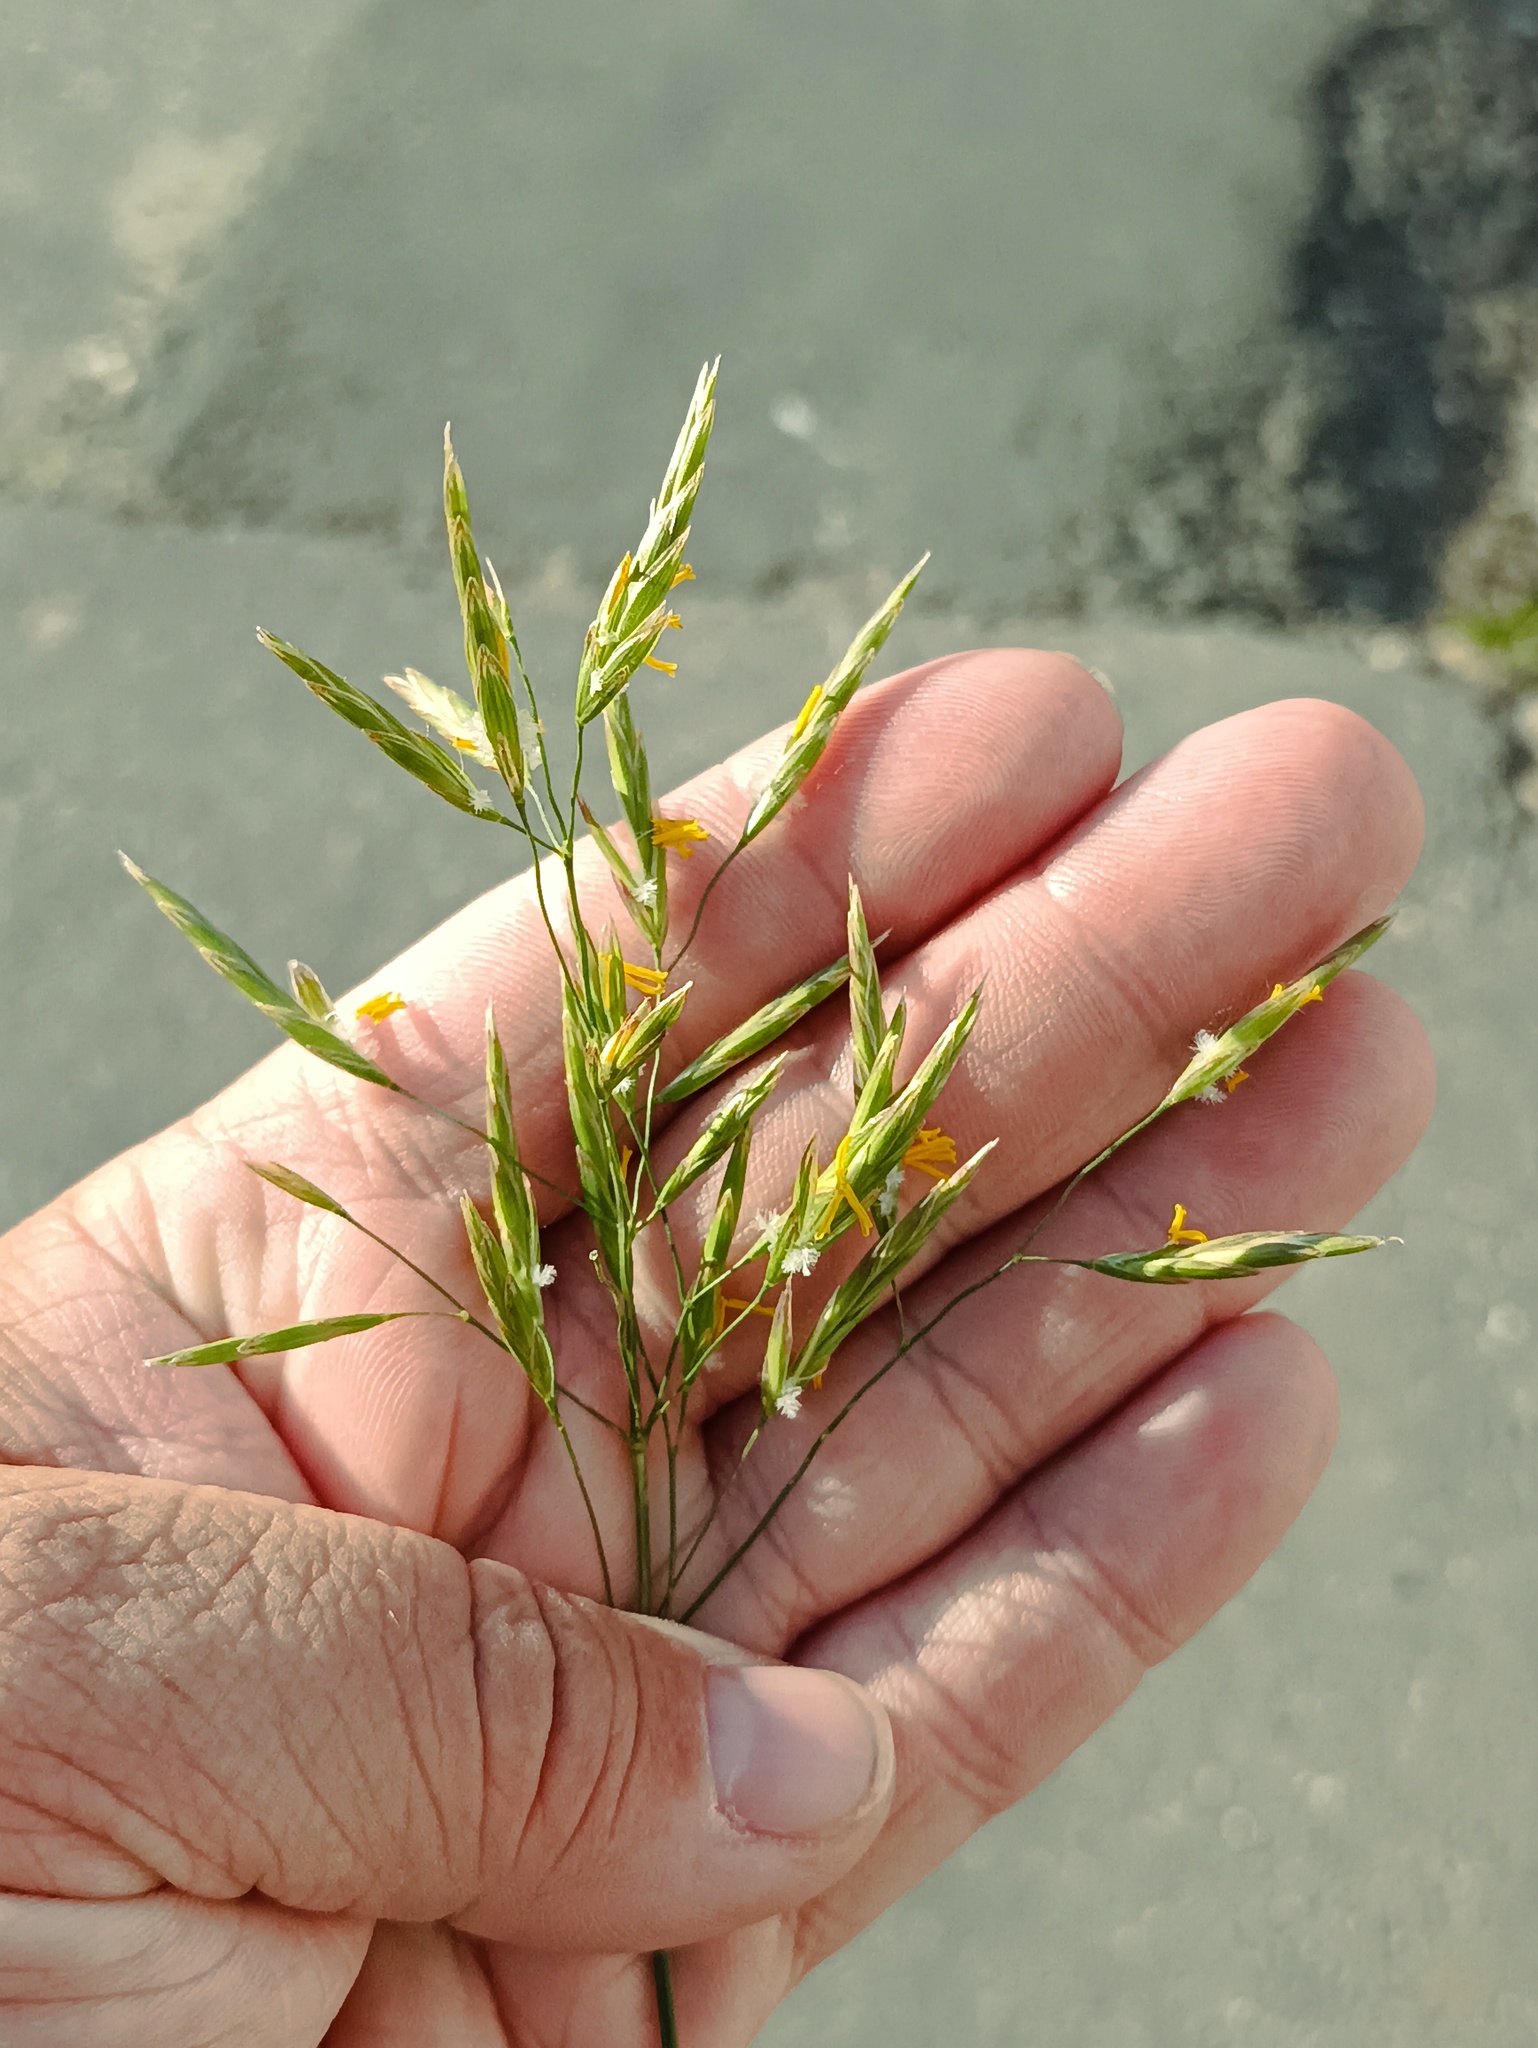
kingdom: Plantae
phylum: Tracheophyta
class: Liliopsida
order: Poales
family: Poaceae
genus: Bromus
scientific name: Bromus inermis
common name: Smooth brome
